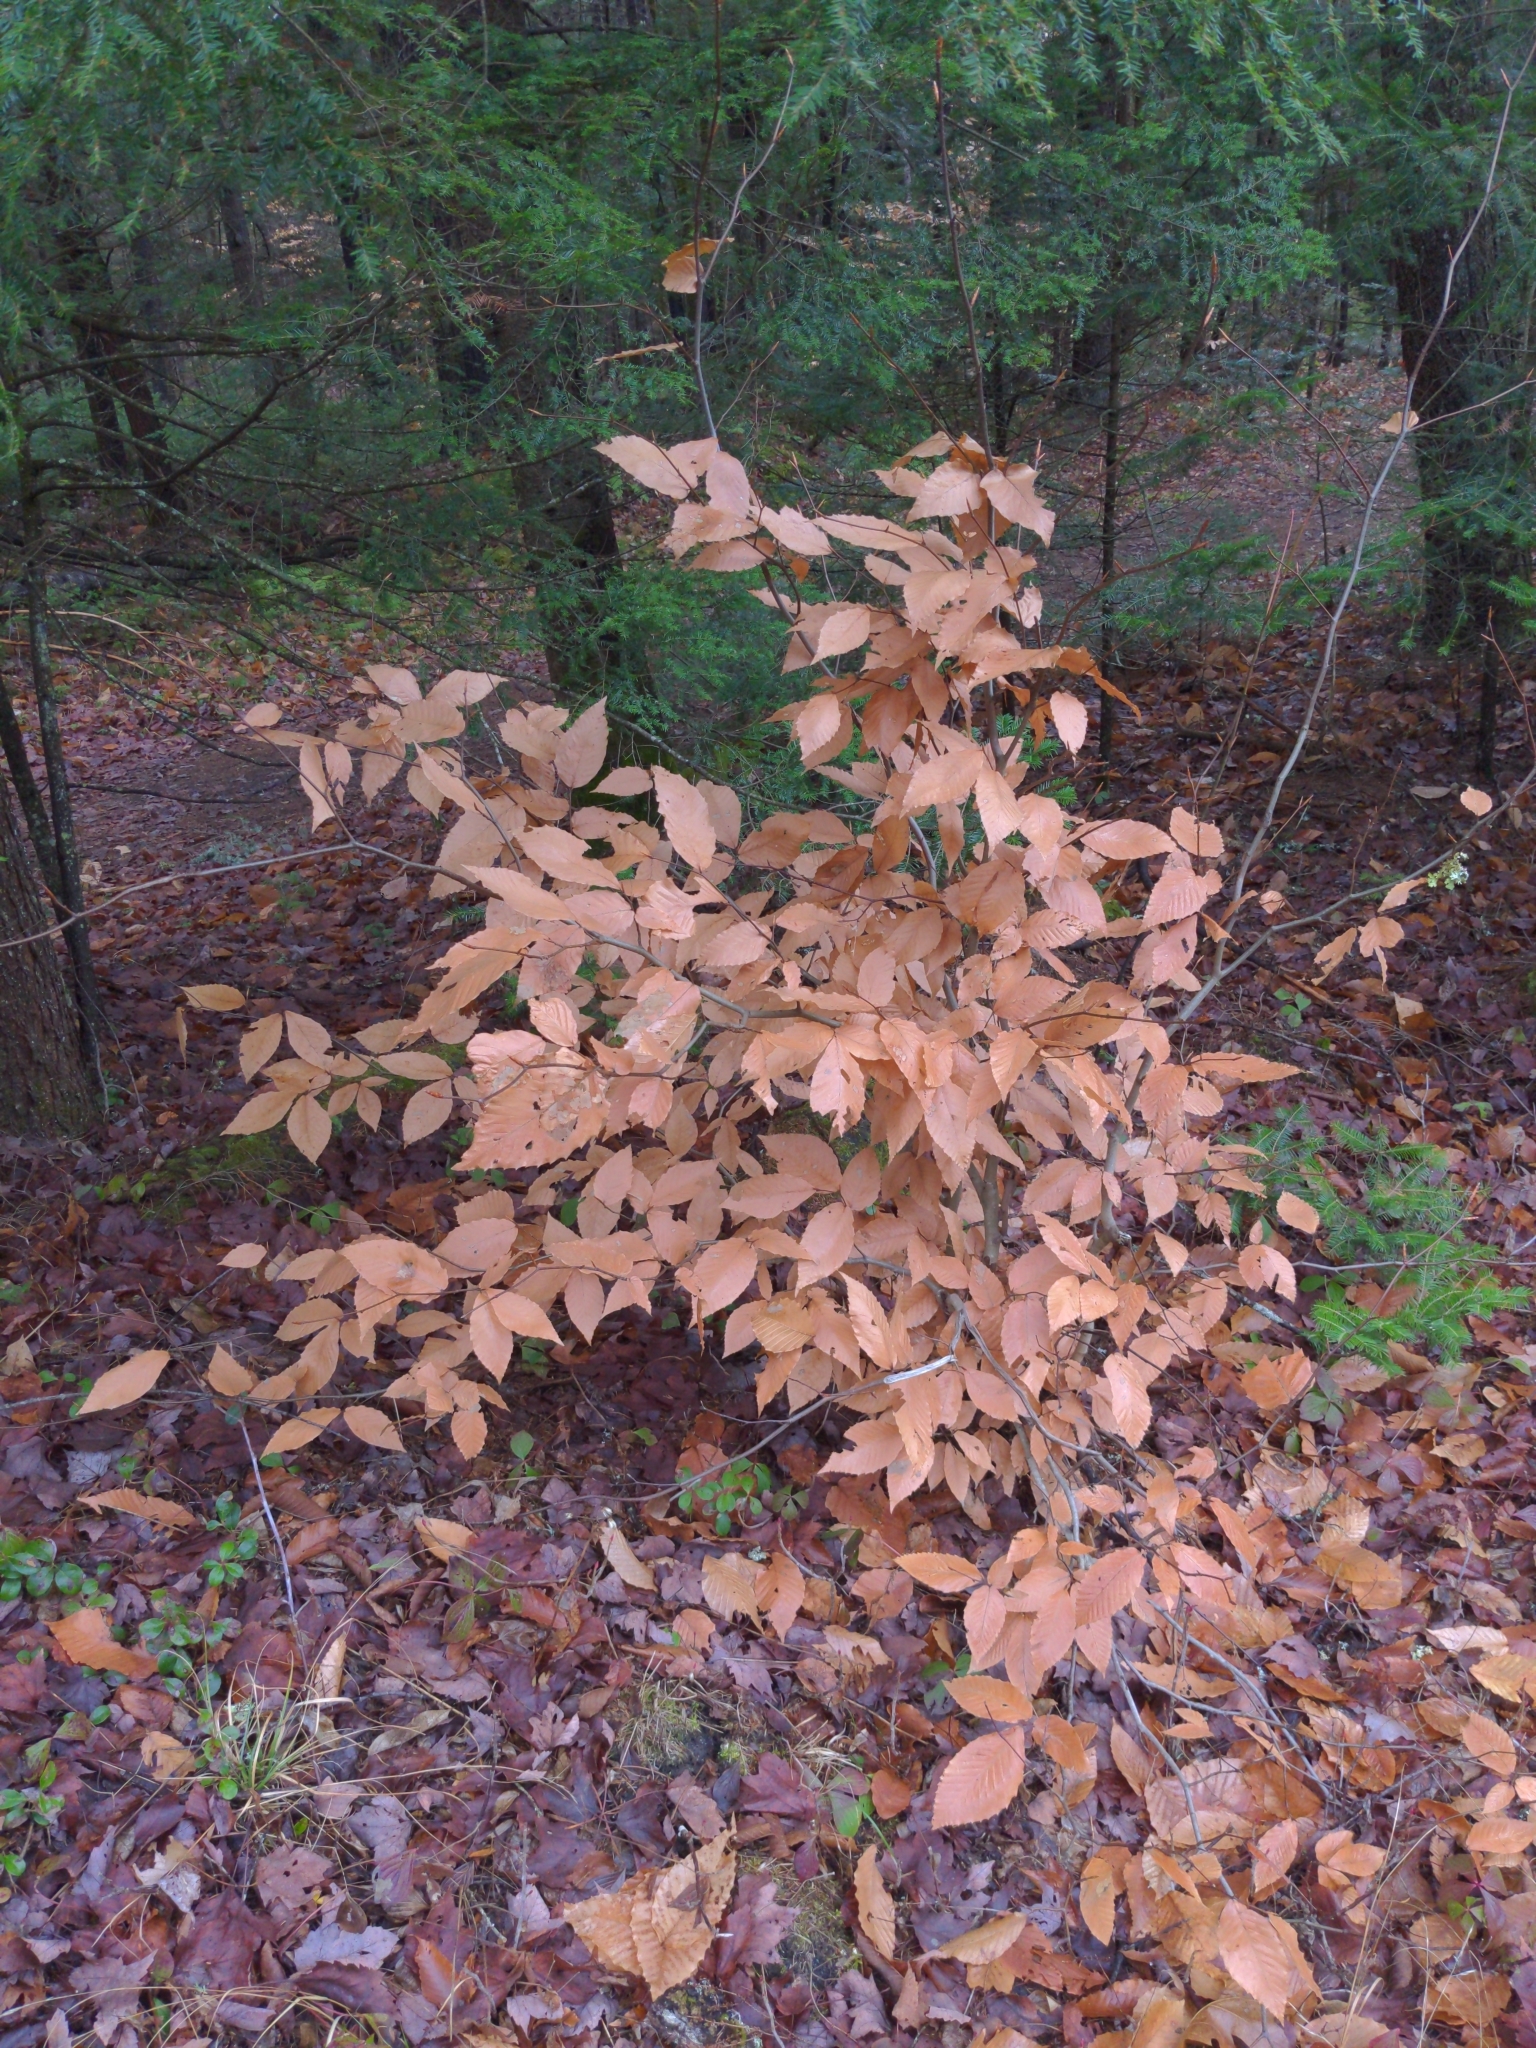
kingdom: Plantae
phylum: Tracheophyta
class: Magnoliopsida
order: Fagales
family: Fagaceae
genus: Fagus
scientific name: Fagus grandifolia
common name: American beech
